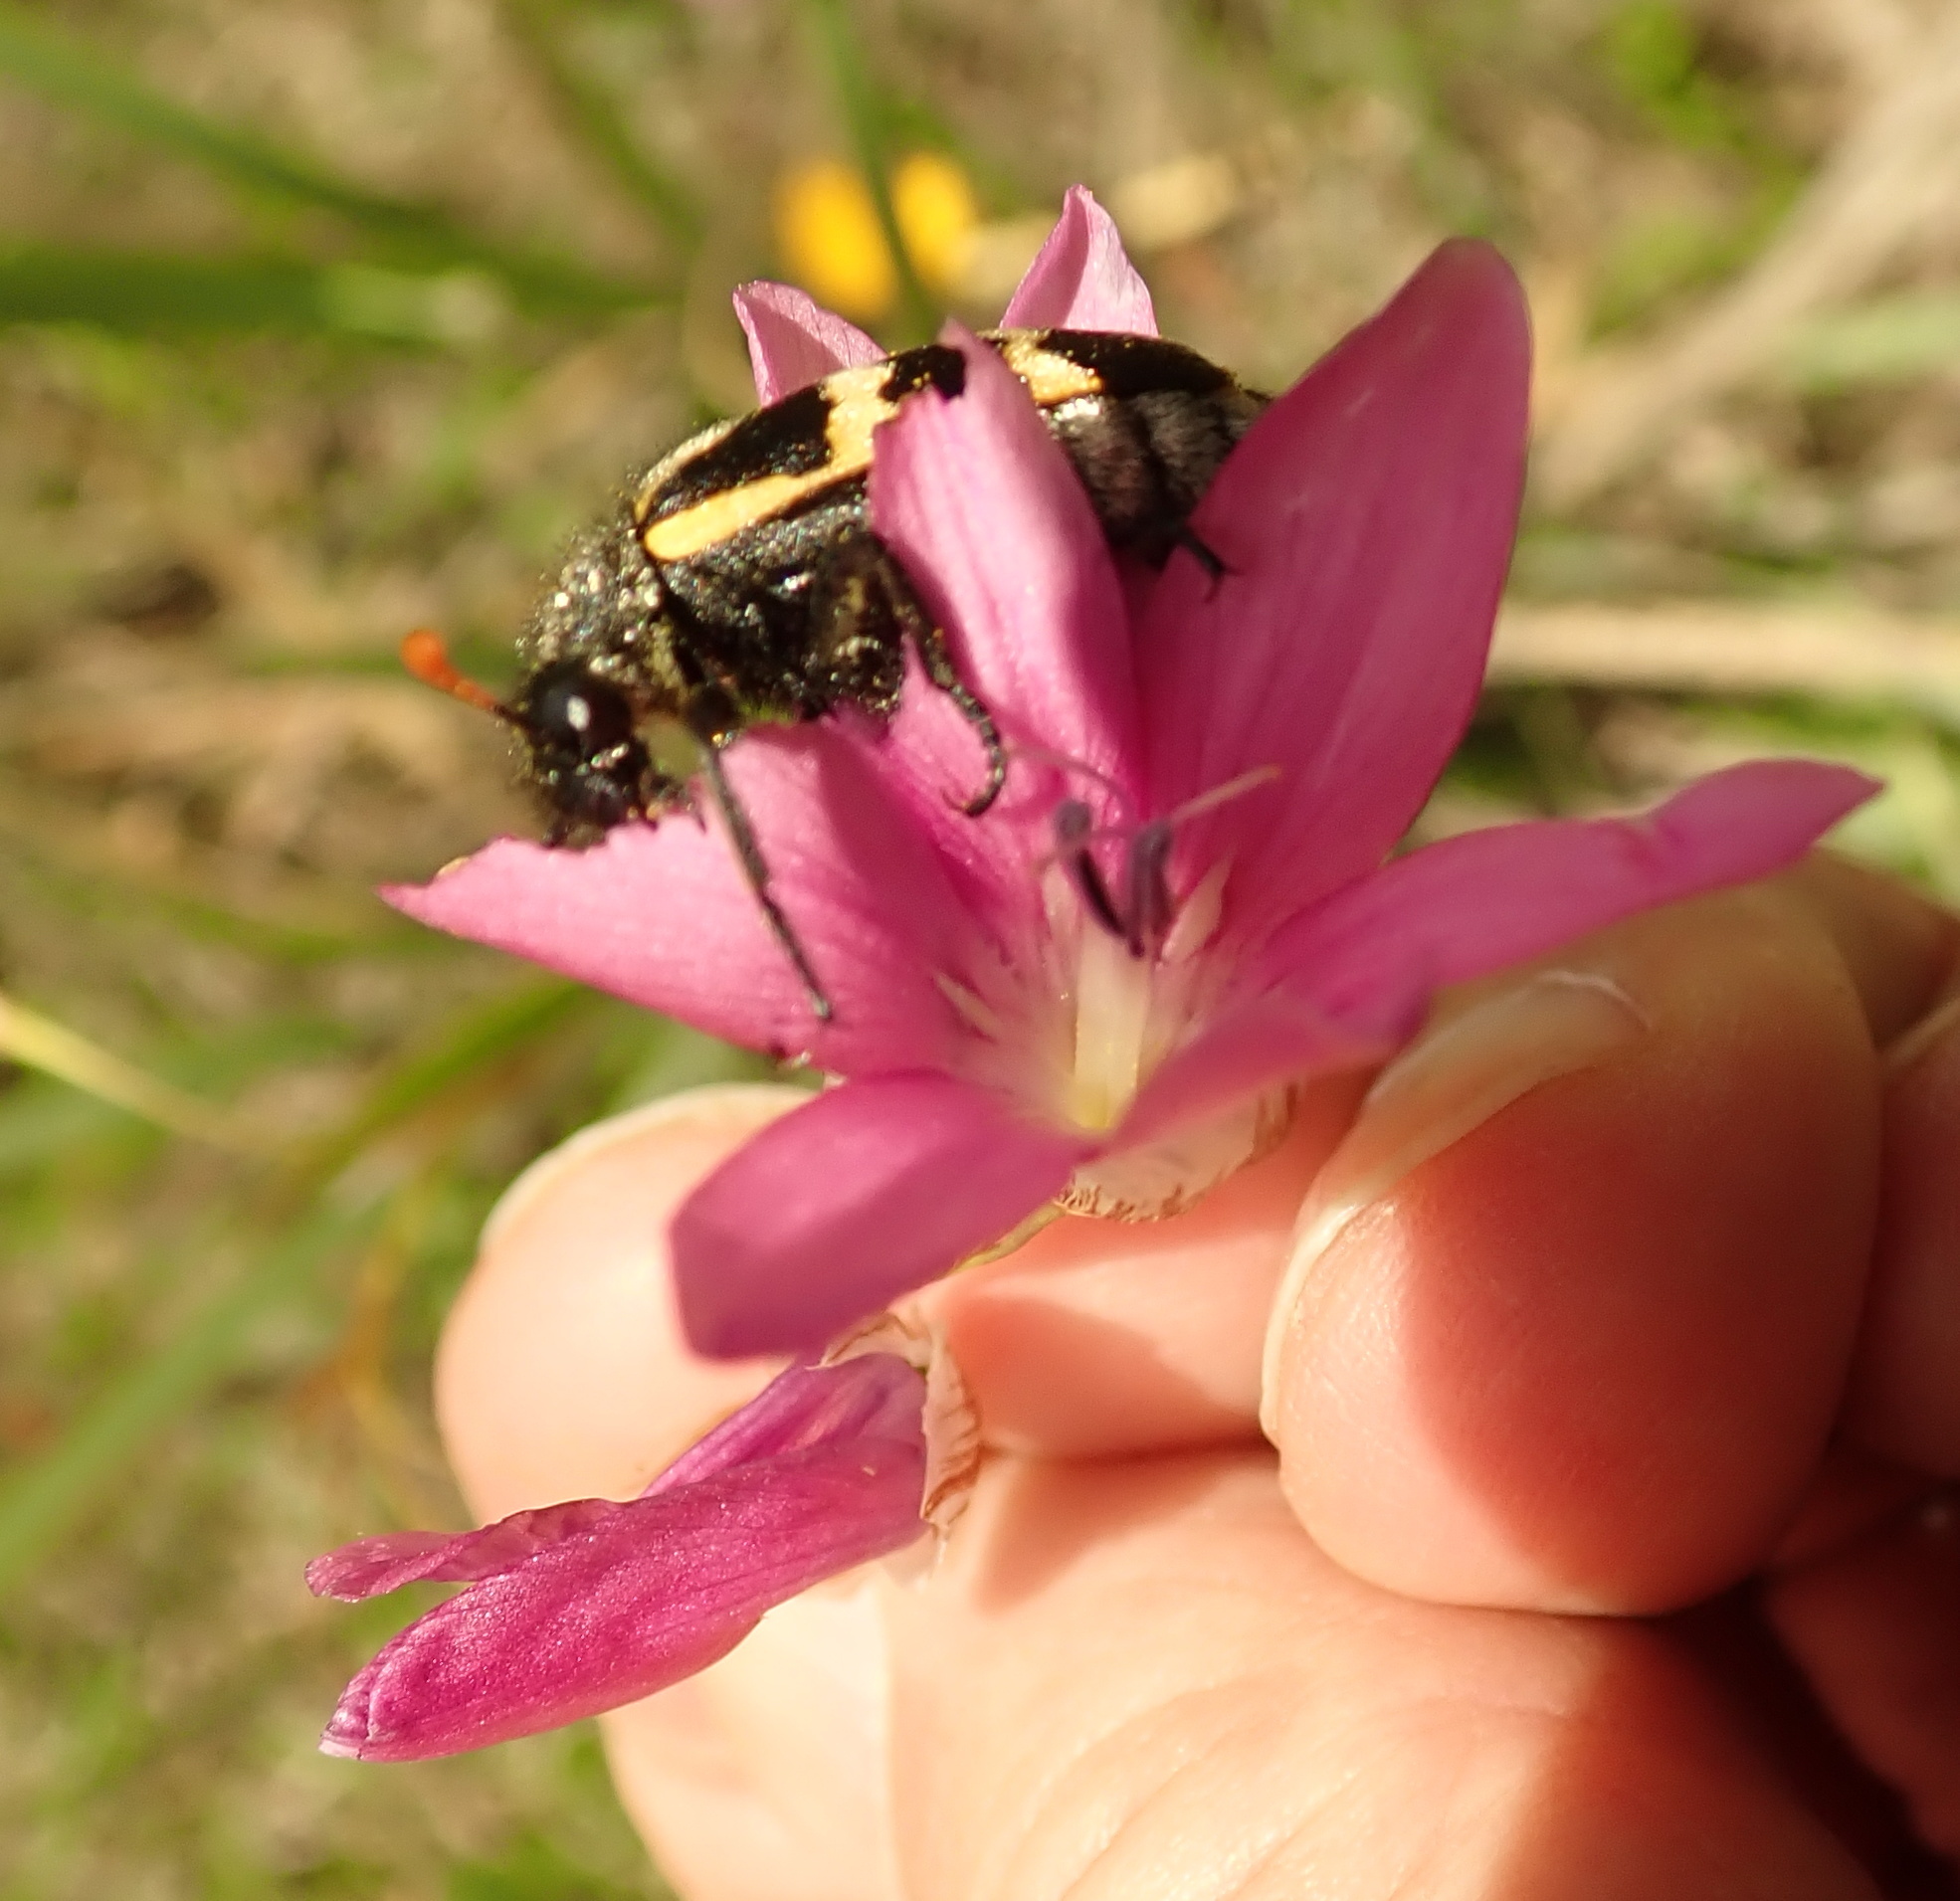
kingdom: Plantae
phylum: Tracheophyta
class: Liliopsida
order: Asparagales
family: Iridaceae
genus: Dierama
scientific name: Dierama cooperi
